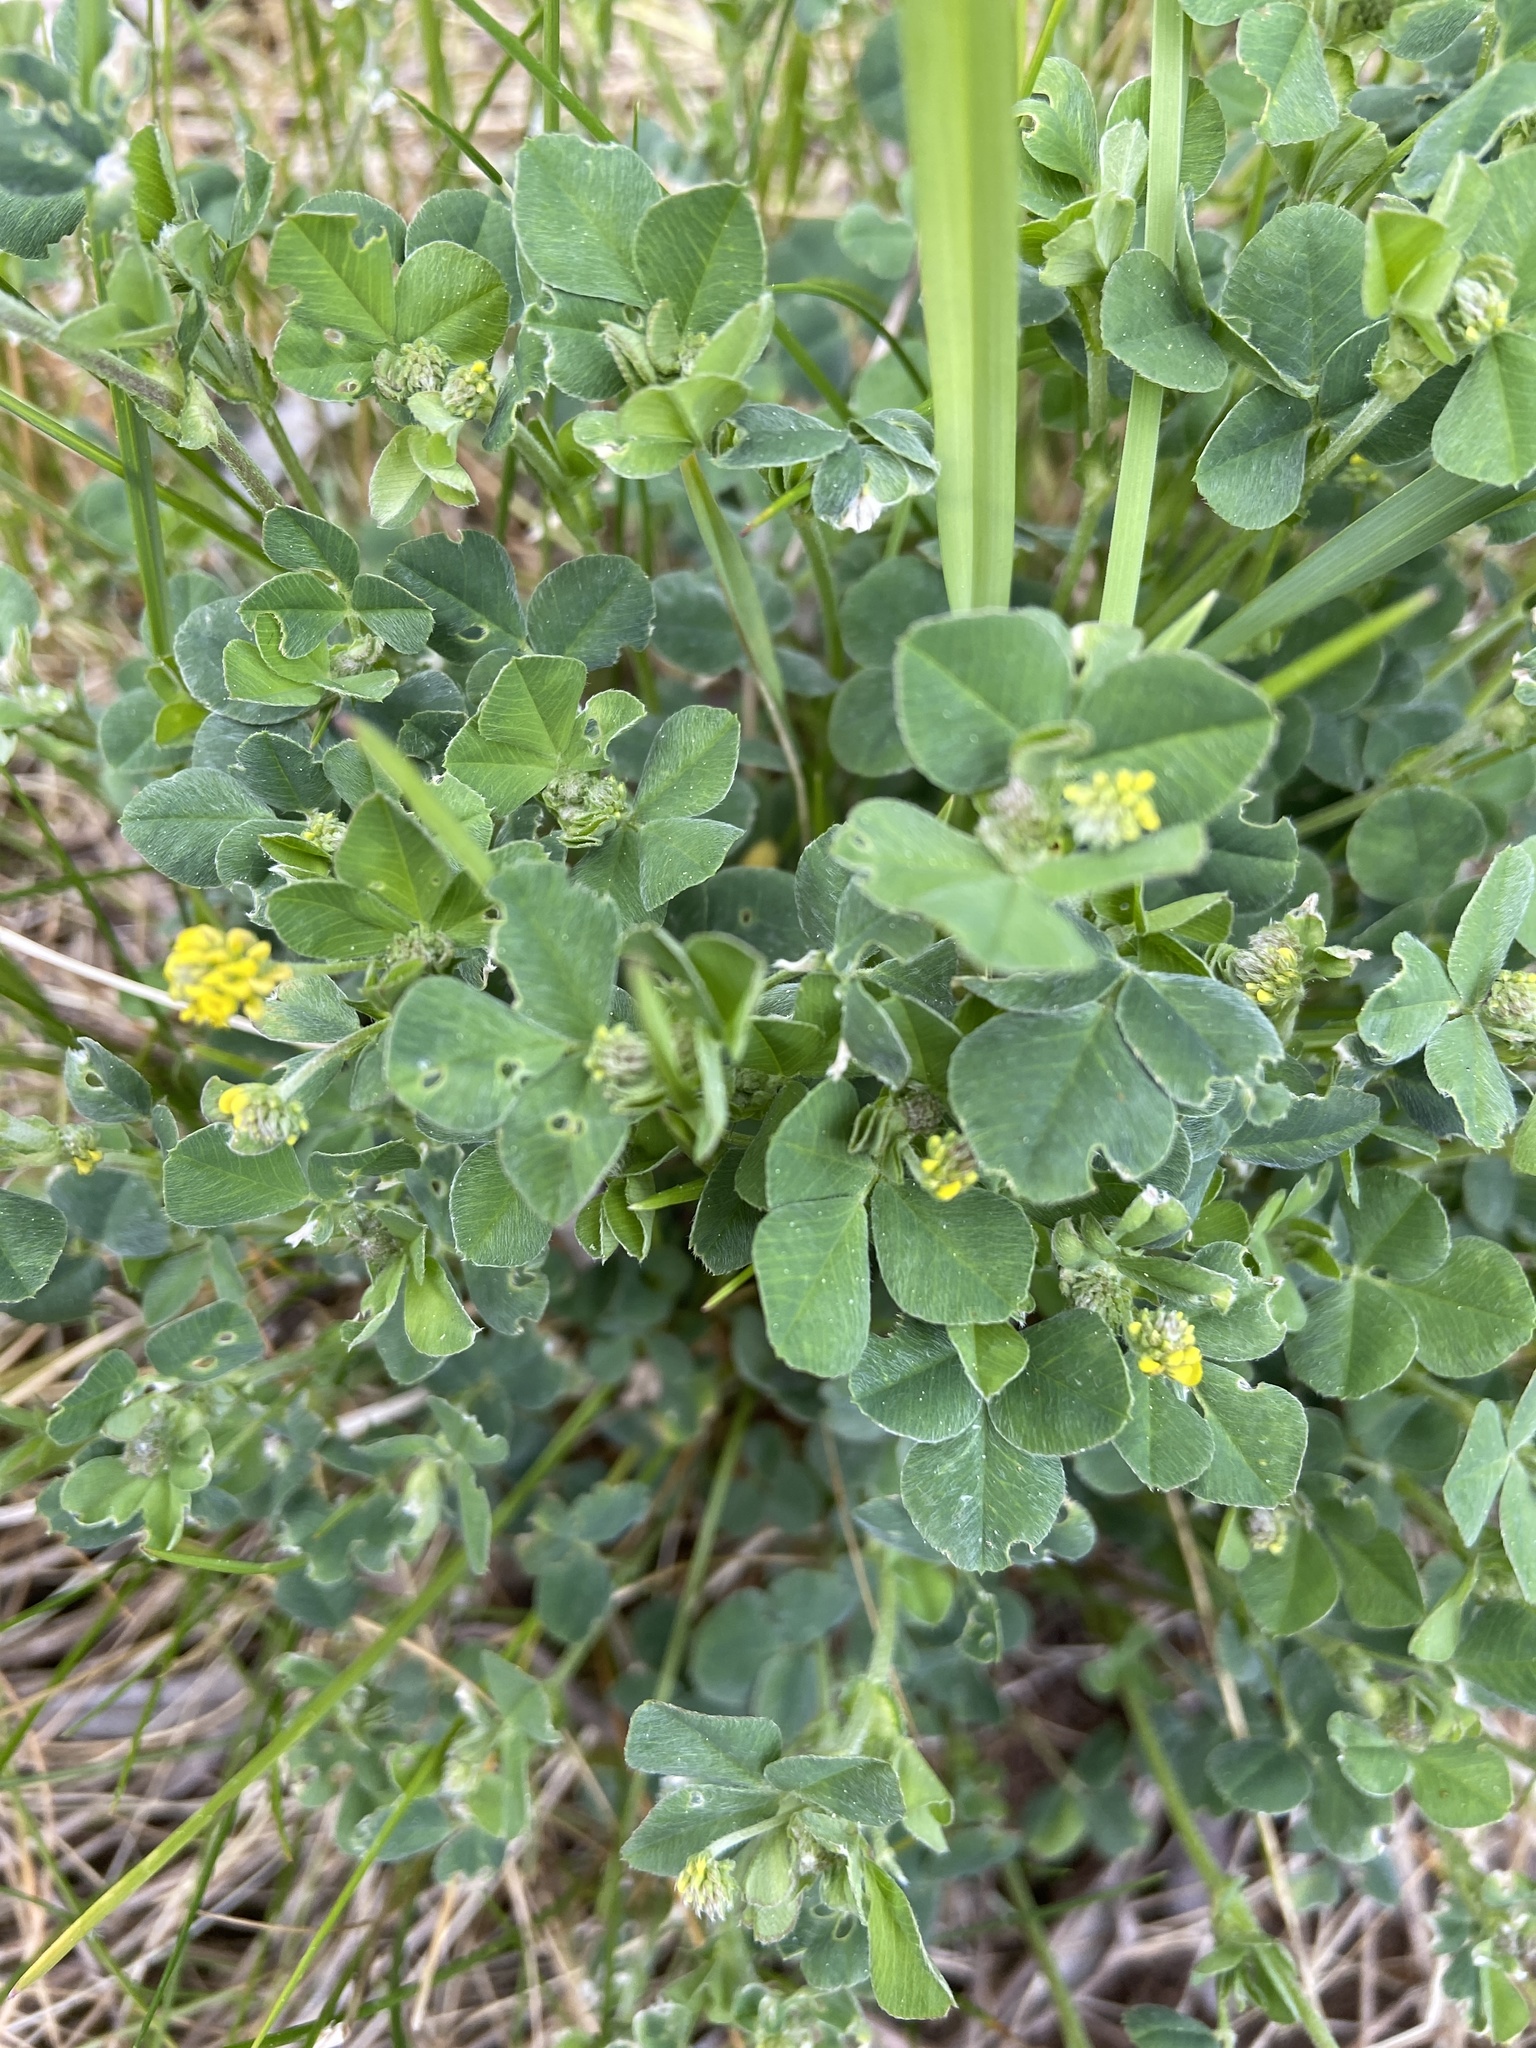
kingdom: Plantae
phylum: Tracheophyta
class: Magnoliopsida
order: Fabales
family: Fabaceae
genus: Medicago
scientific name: Medicago lupulina
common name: Black medick
